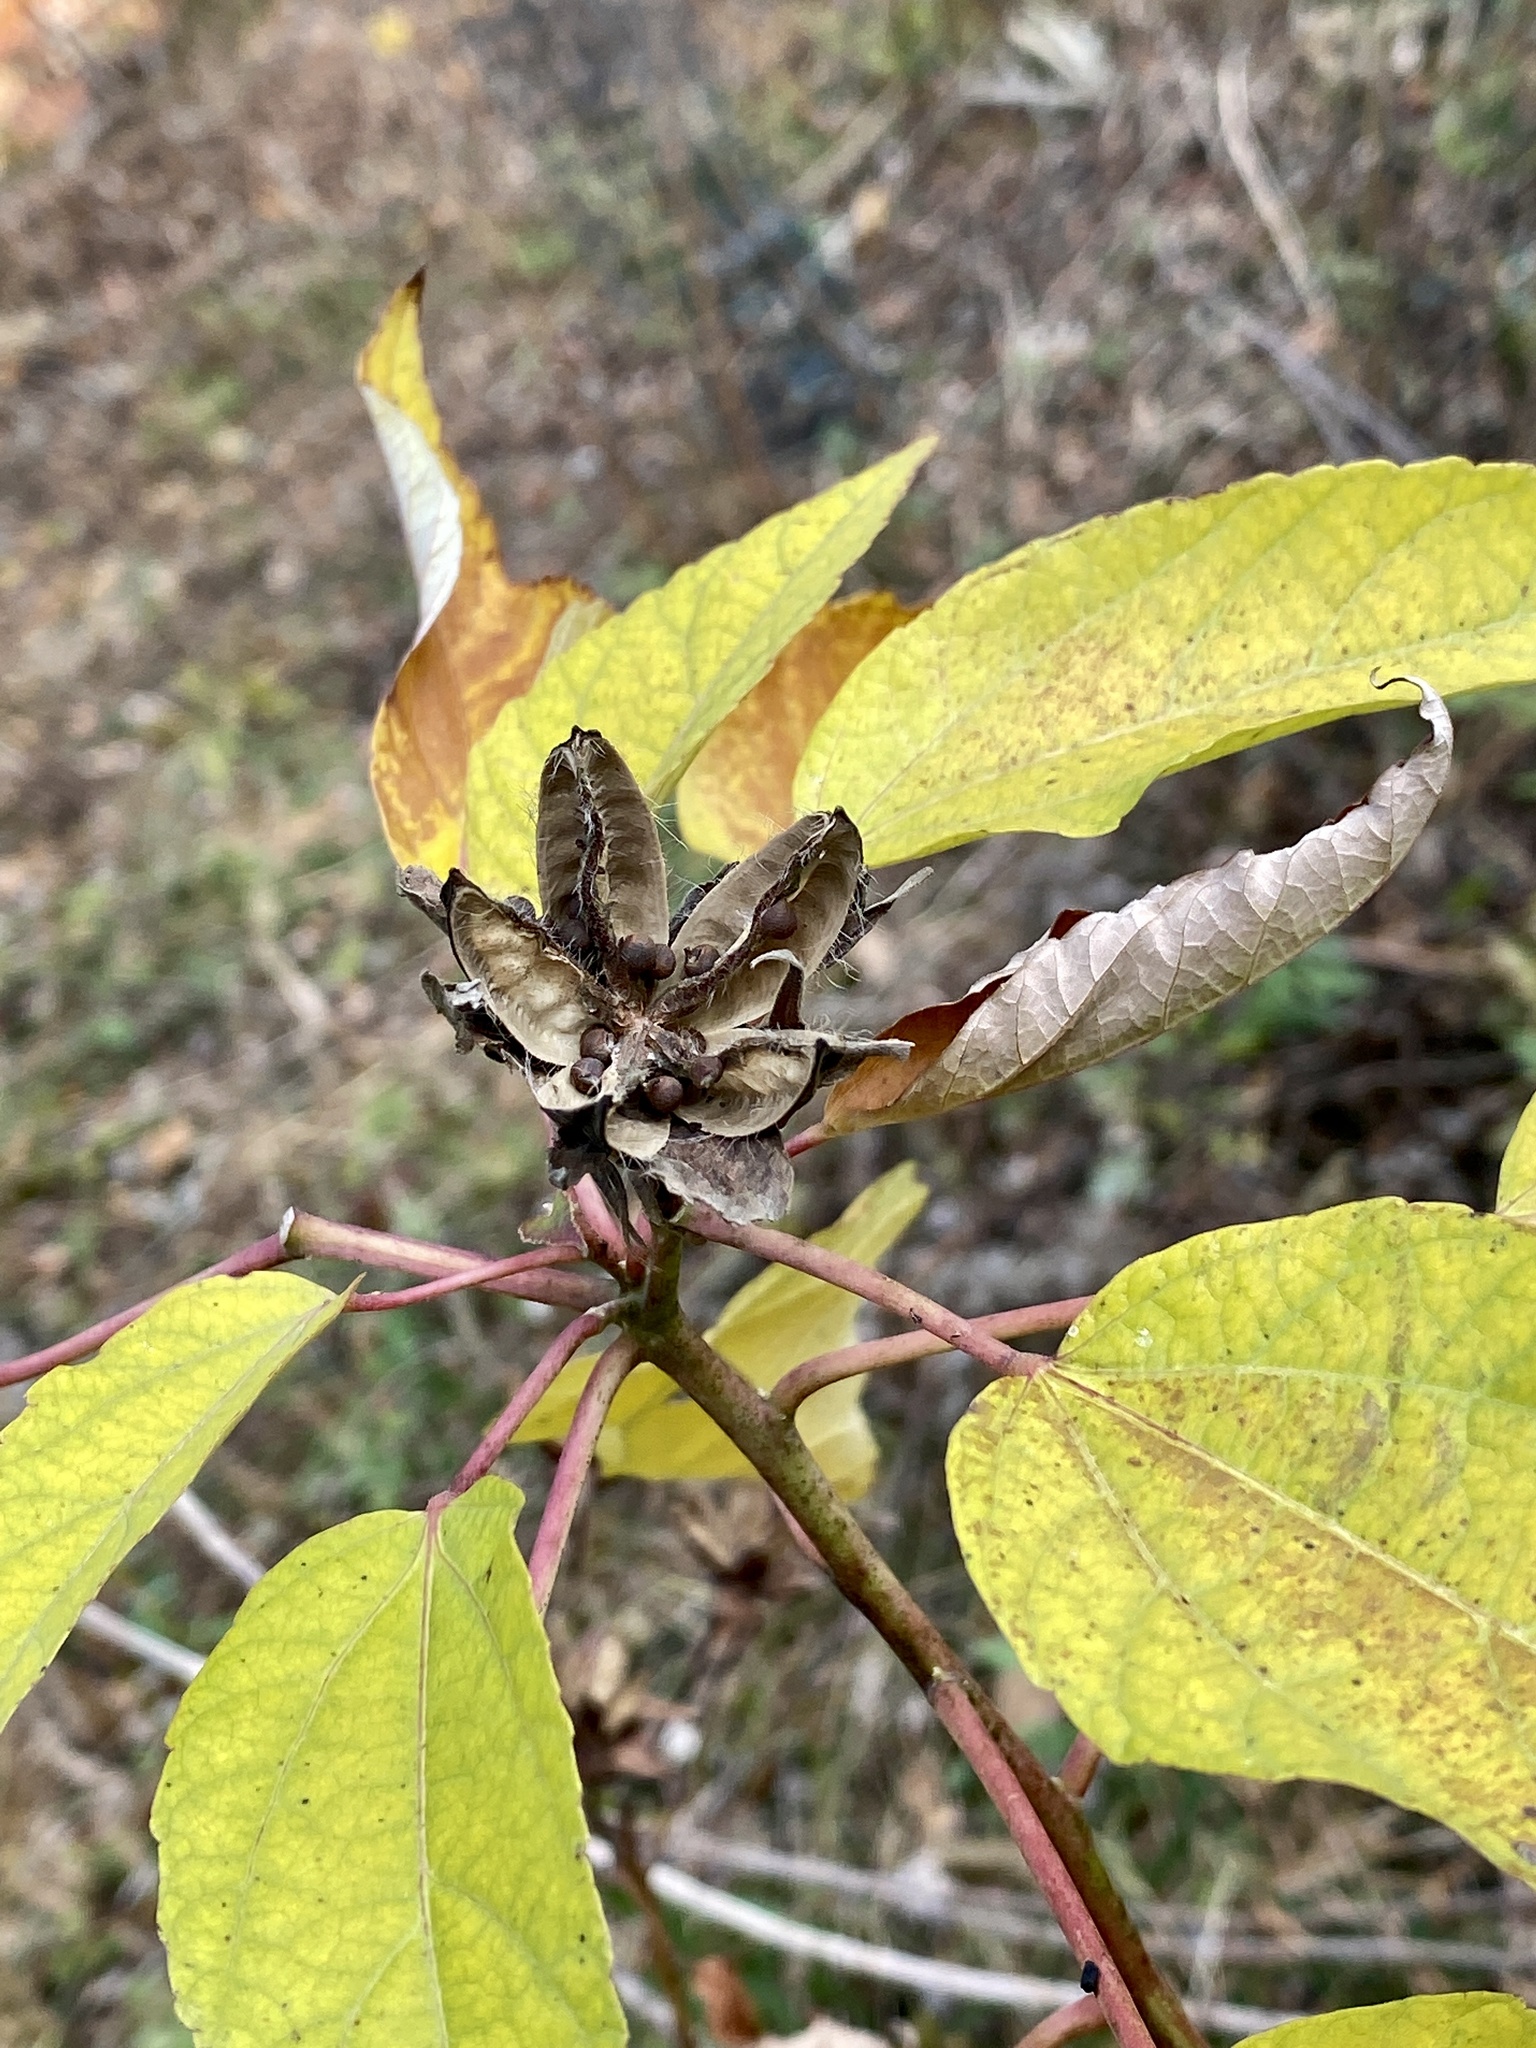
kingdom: Plantae
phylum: Tracheophyta
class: Magnoliopsida
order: Malvales
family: Malvaceae
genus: Hibiscus
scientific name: Hibiscus moscheutos
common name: Common rose-mallow
